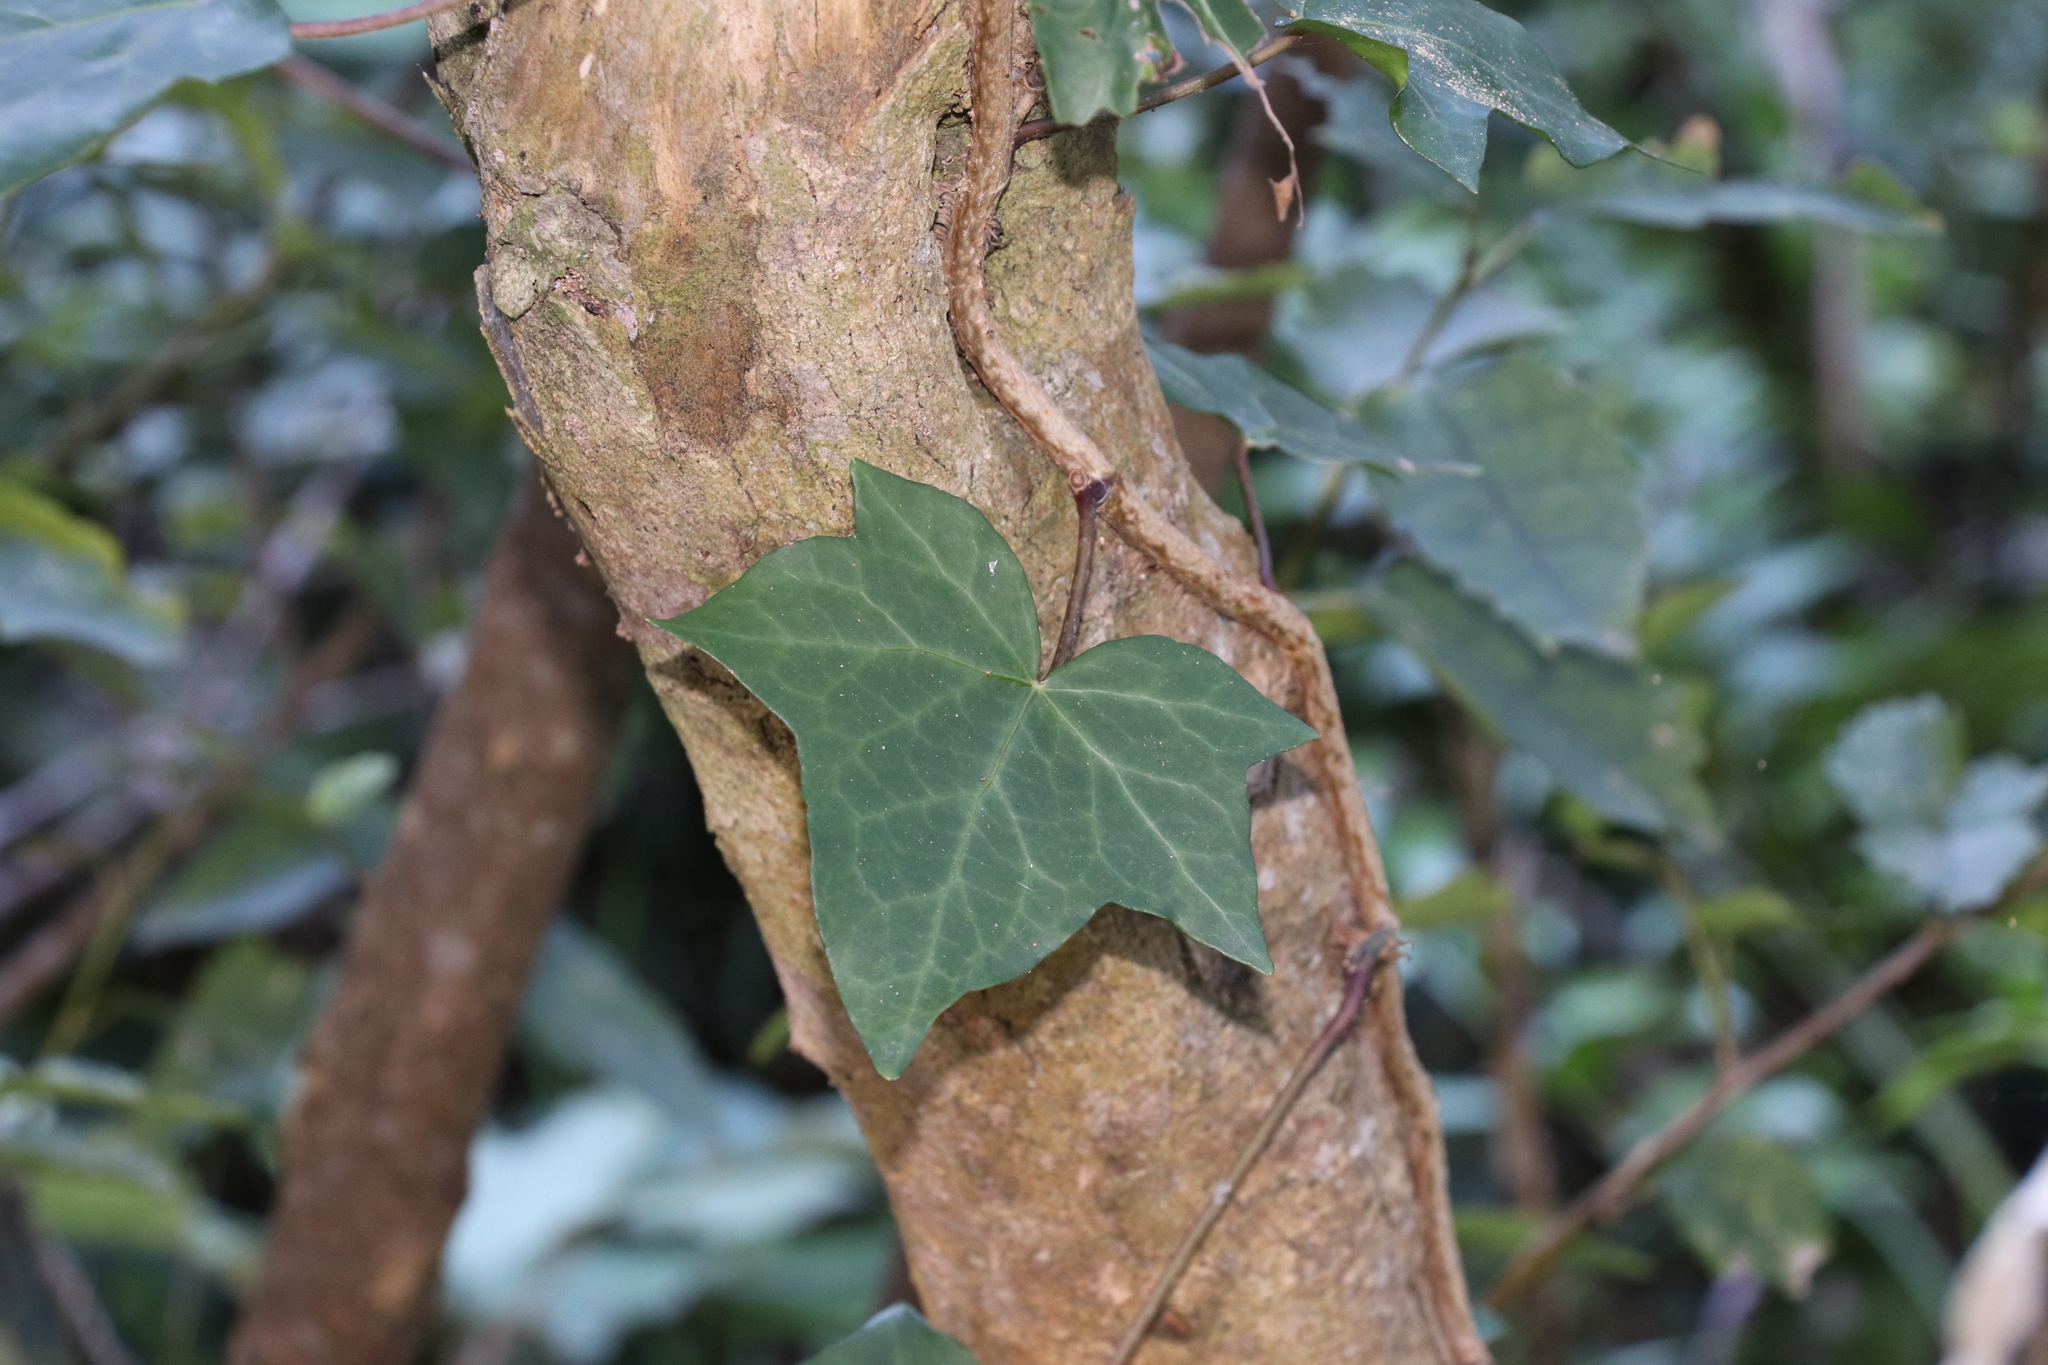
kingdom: Plantae
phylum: Tracheophyta
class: Magnoliopsida
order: Apiales
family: Araliaceae
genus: Hedera
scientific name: Hedera helix
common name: Ivy
